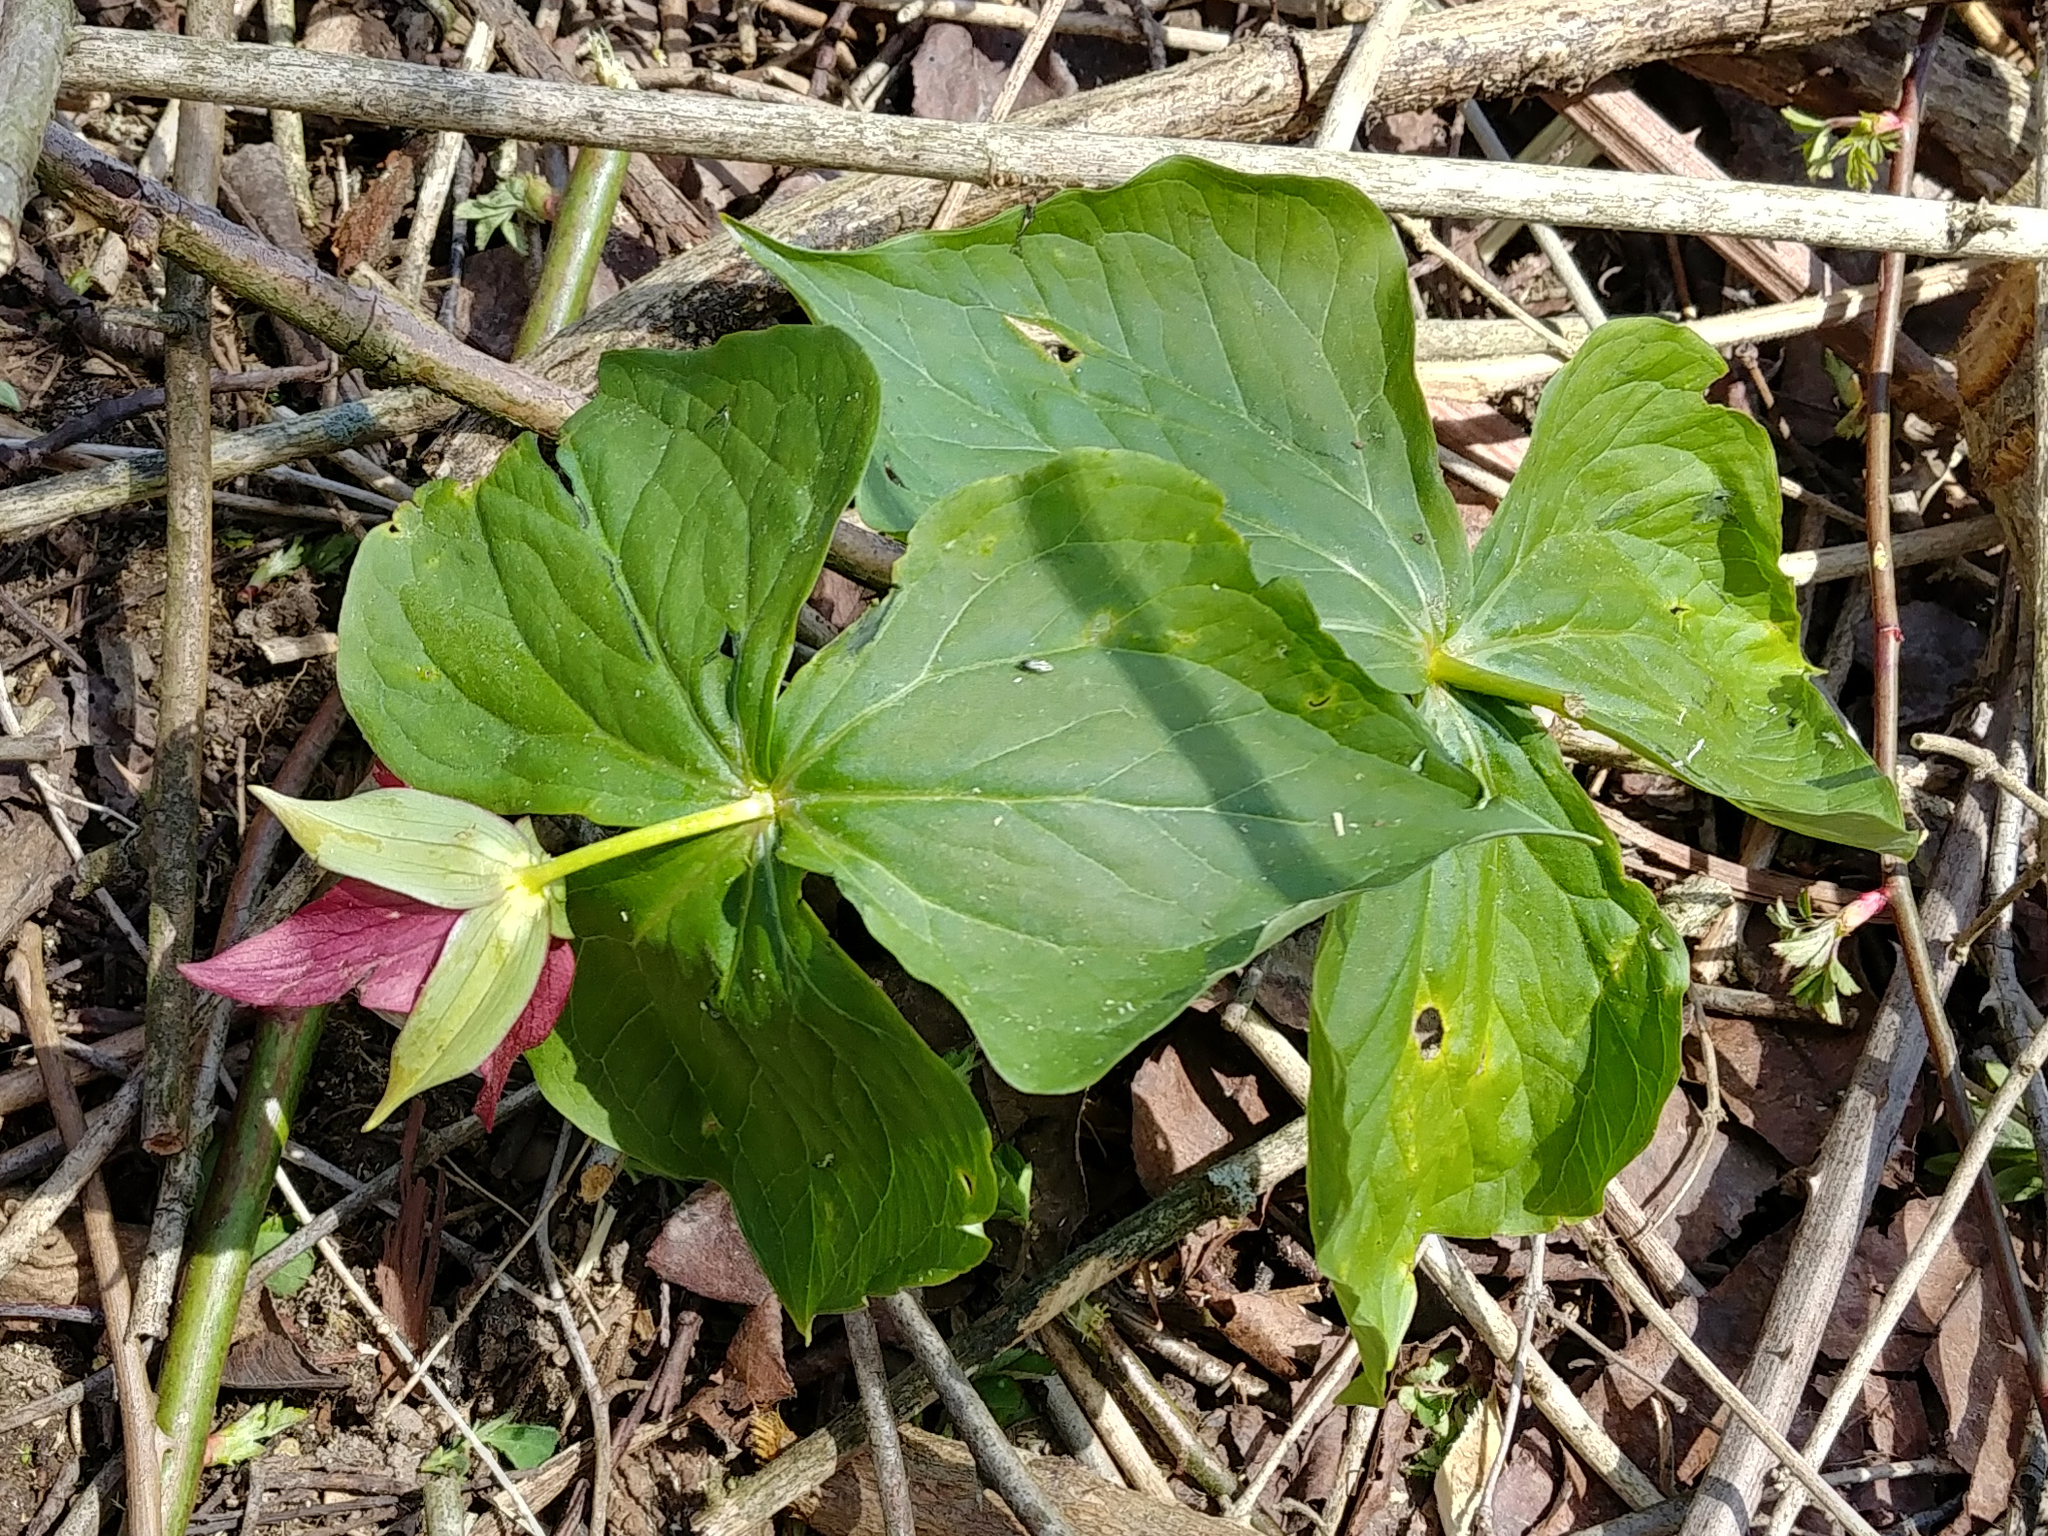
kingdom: Plantae
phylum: Tracheophyta
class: Liliopsida
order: Liliales
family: Melanthiaceae
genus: Trillium
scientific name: Trillium erectum
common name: Purple trillium
